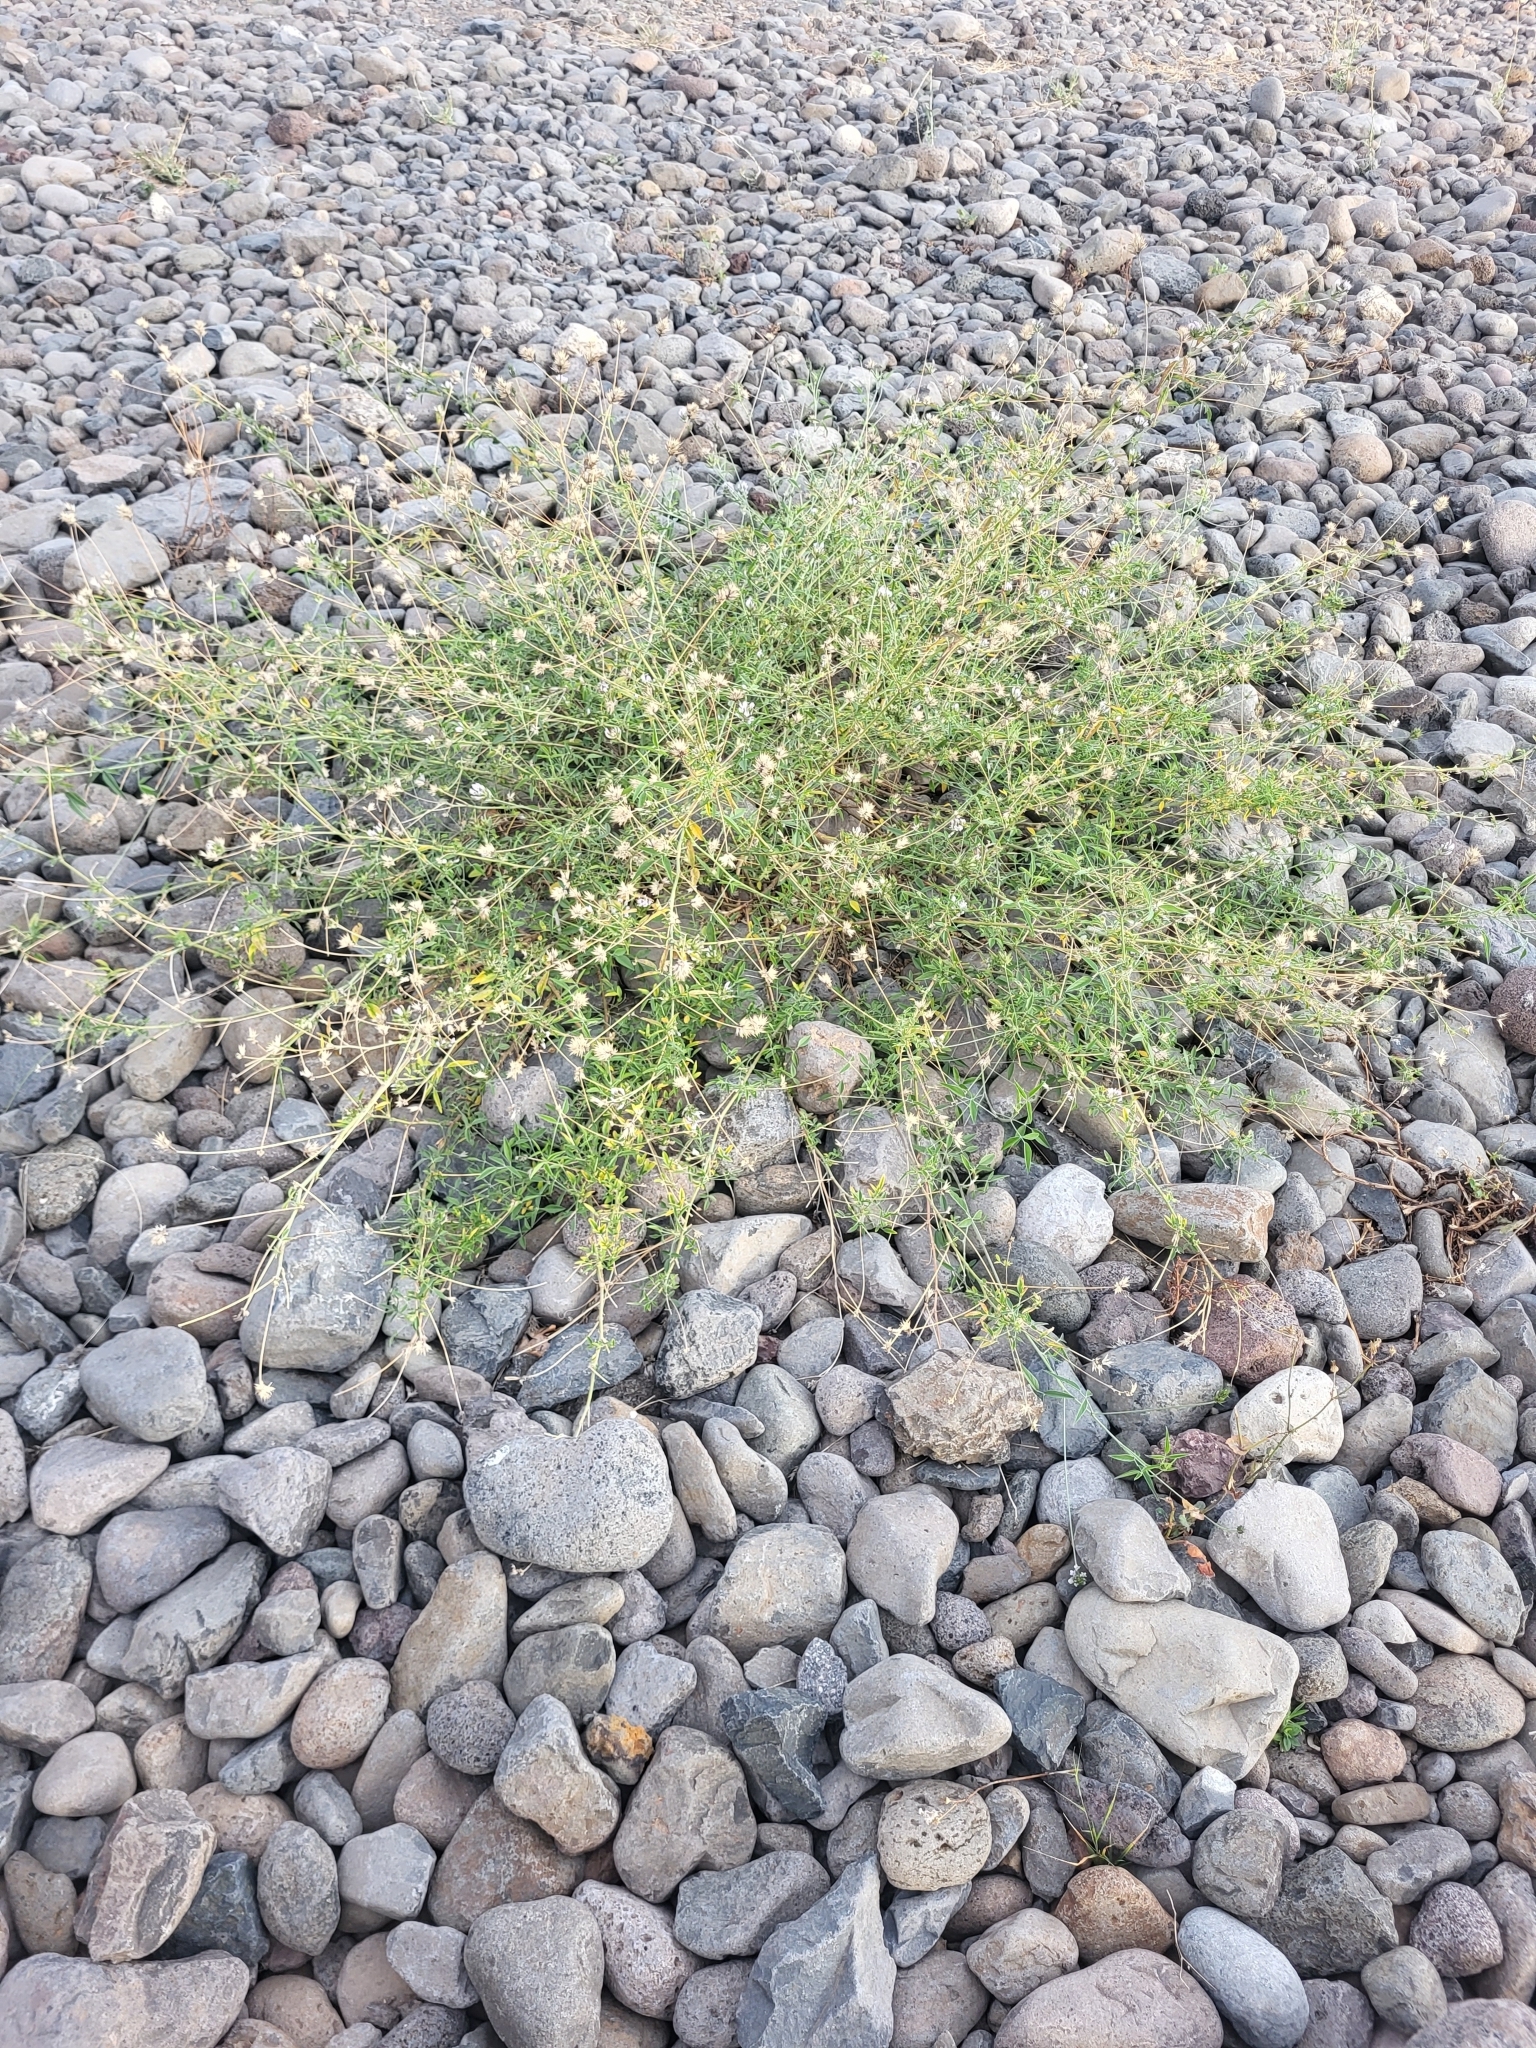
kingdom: Plantae
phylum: Tracheophyta
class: Magnoliopsida
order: Fabales
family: Fabaceae
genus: Bituminaria
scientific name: Bituminaria bituminosa
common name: Arabian pea
